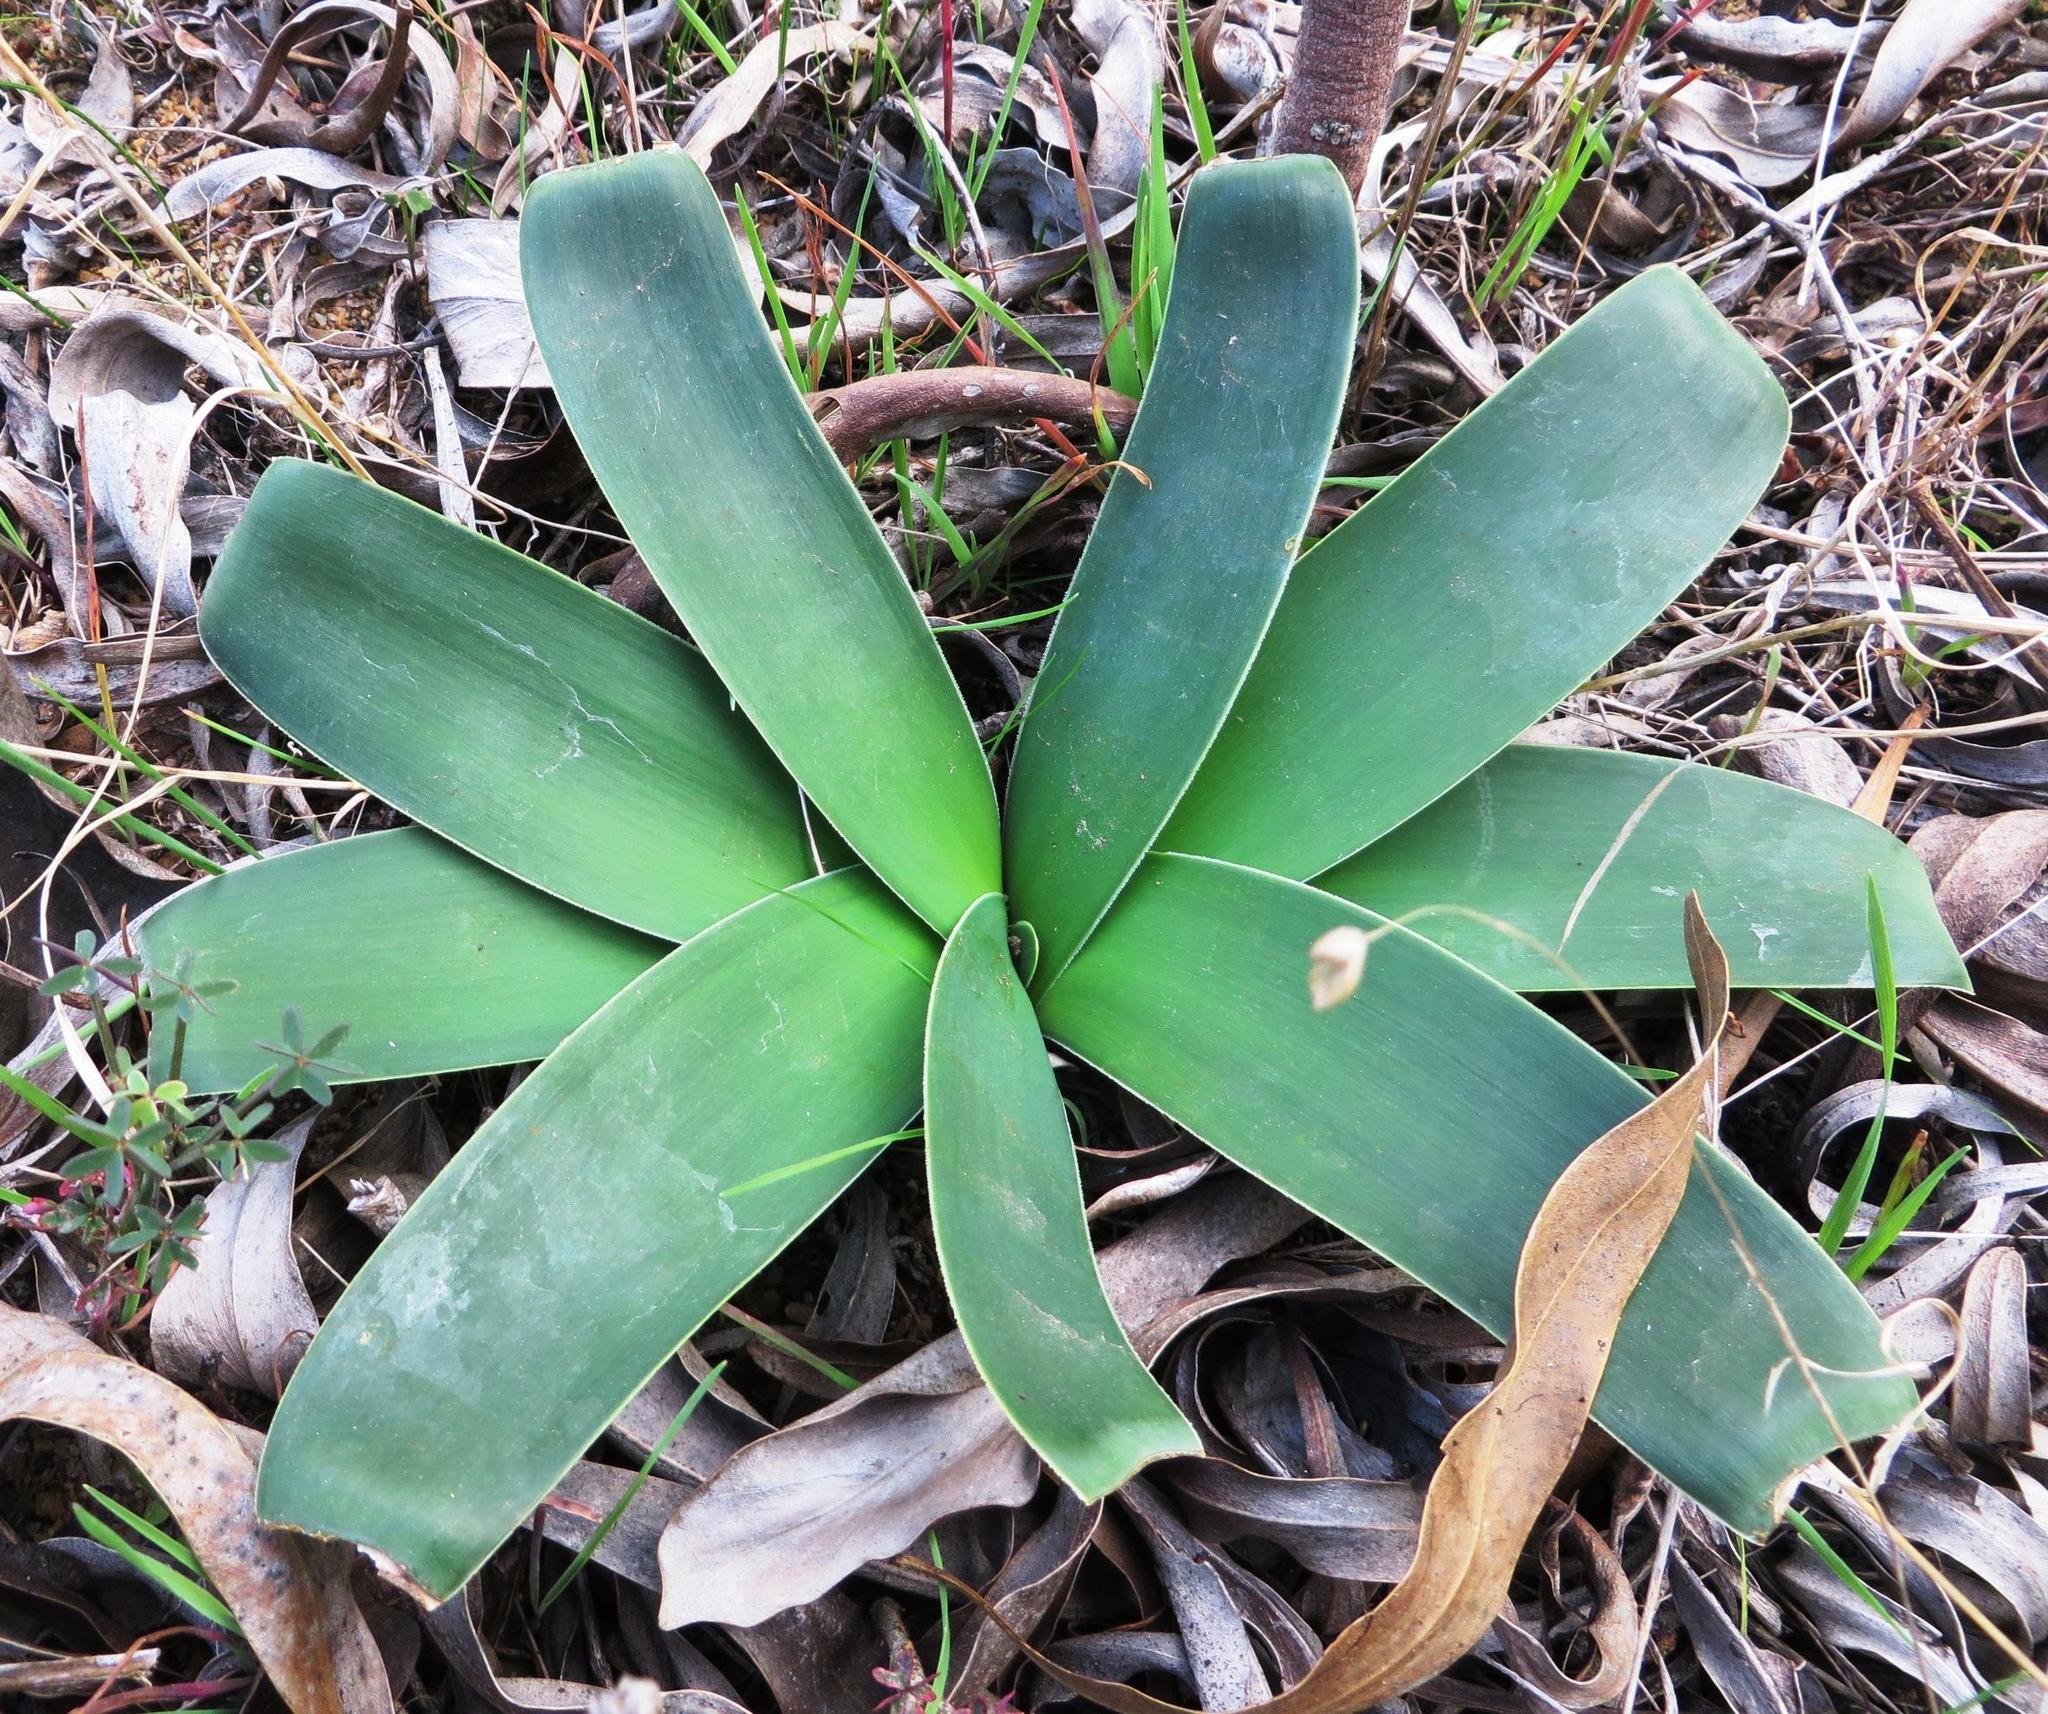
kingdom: Plantae
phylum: Tracheophyta
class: Liliopsida
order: Asparagales
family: Amaryllidaceae
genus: Ammocharis
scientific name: Ammocharis longifolia
